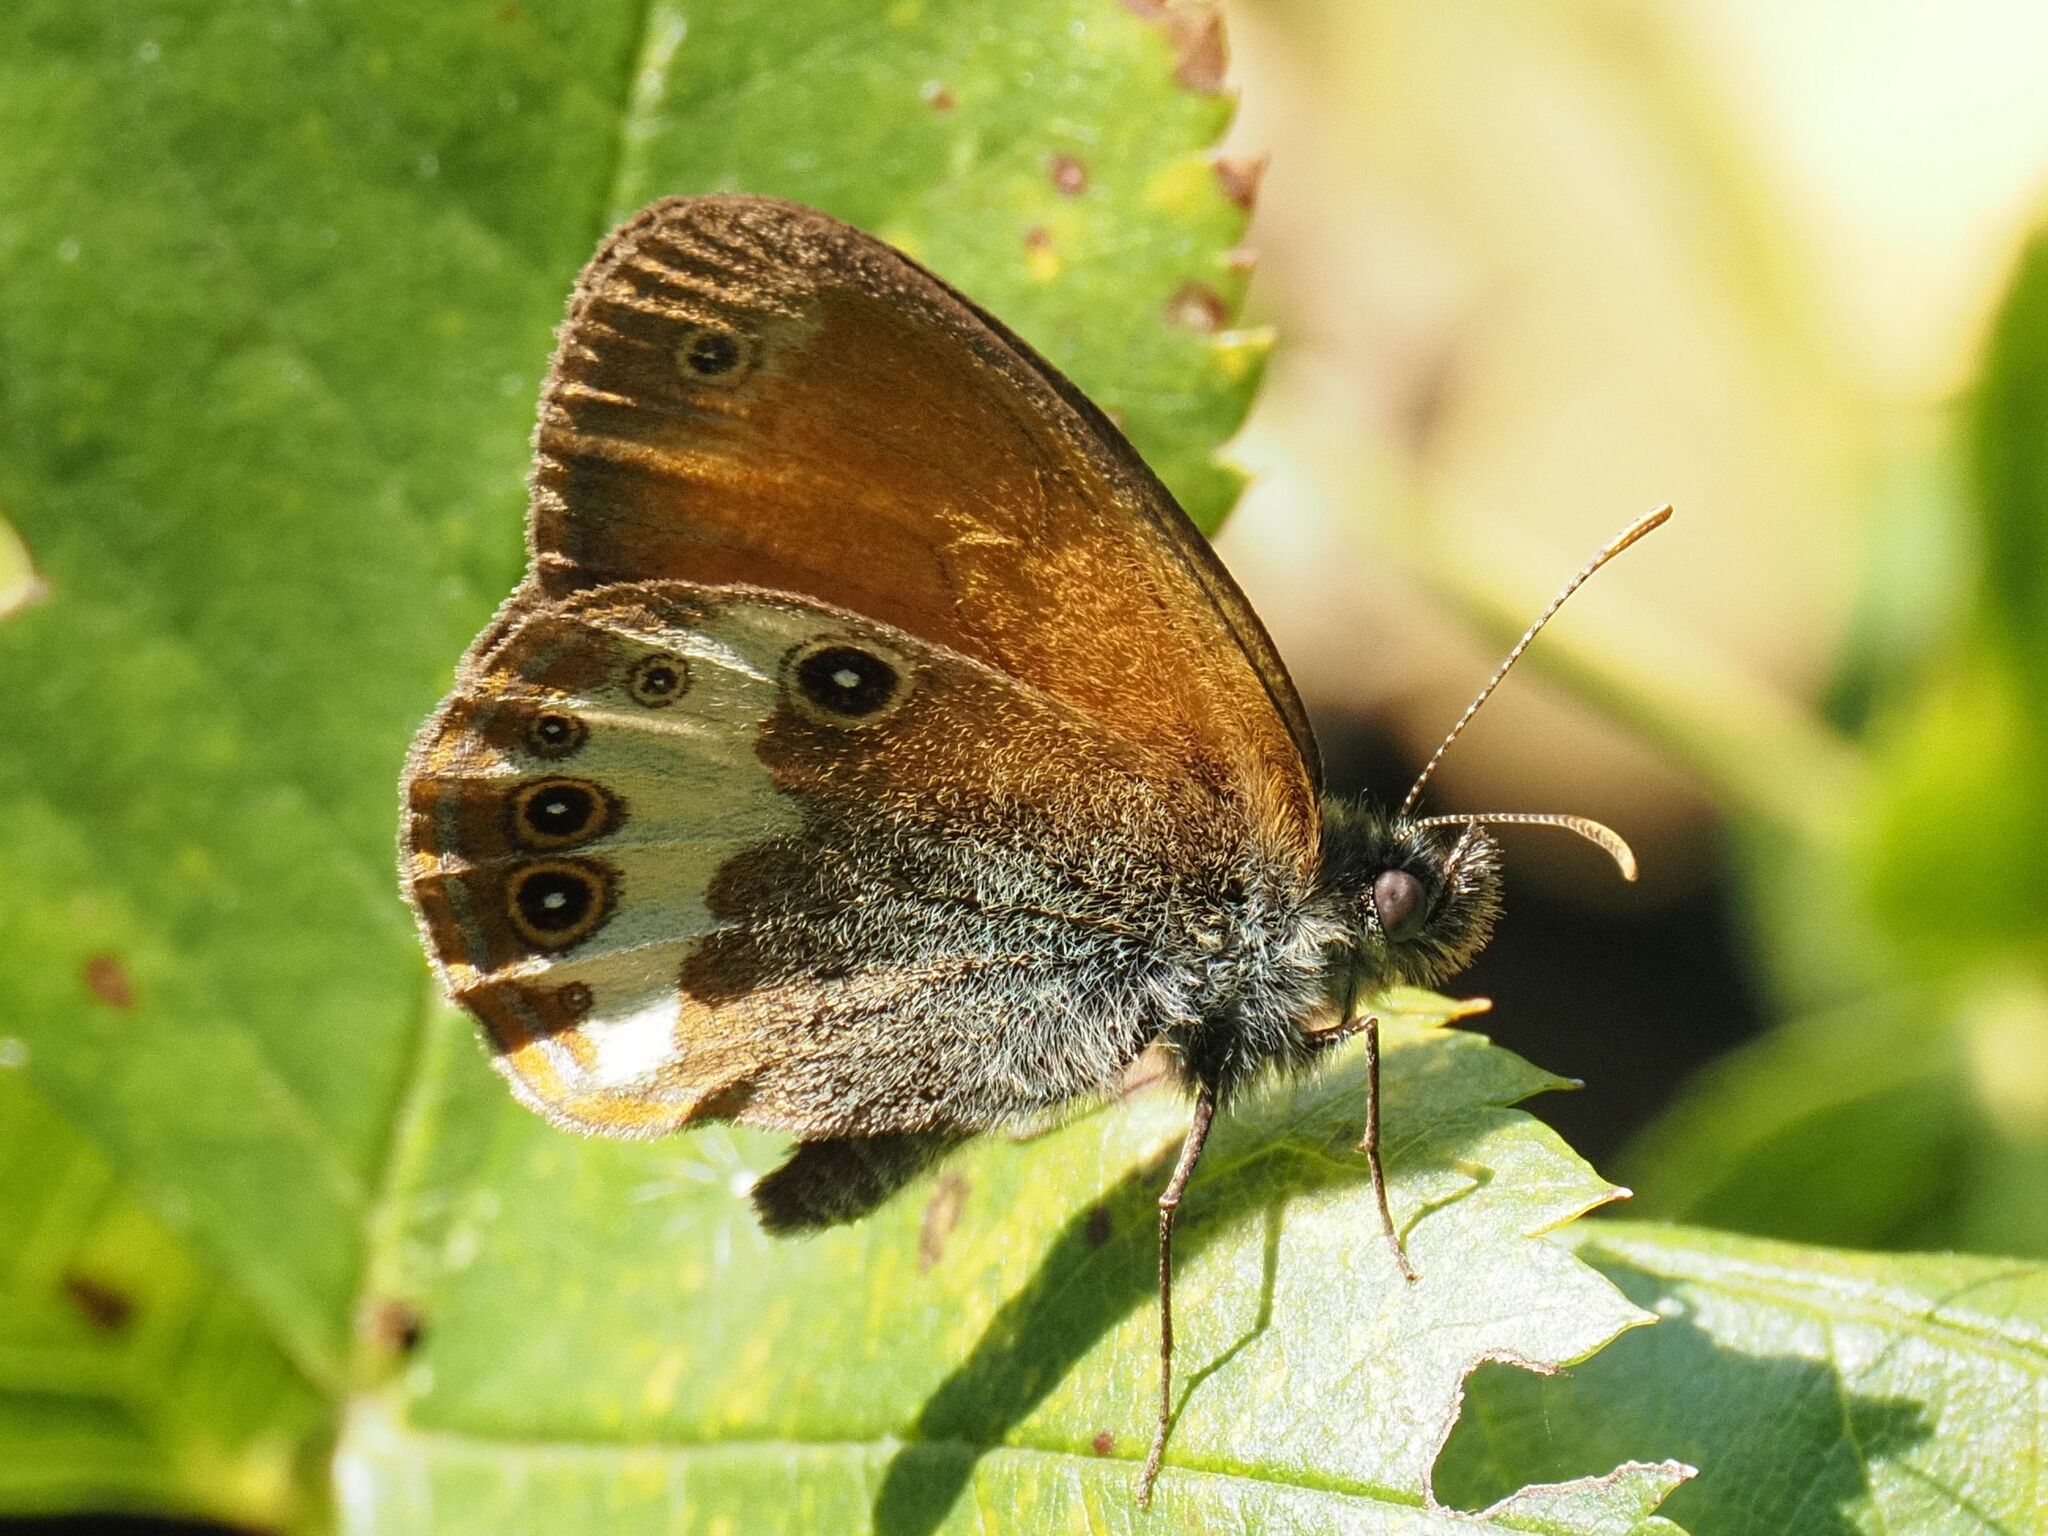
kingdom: Animalia
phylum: Arthropoda
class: Insecta
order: Lepidoptera
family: Nymphalidae
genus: Coenonympha
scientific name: Coenonympha arcania
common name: Pearly heath
